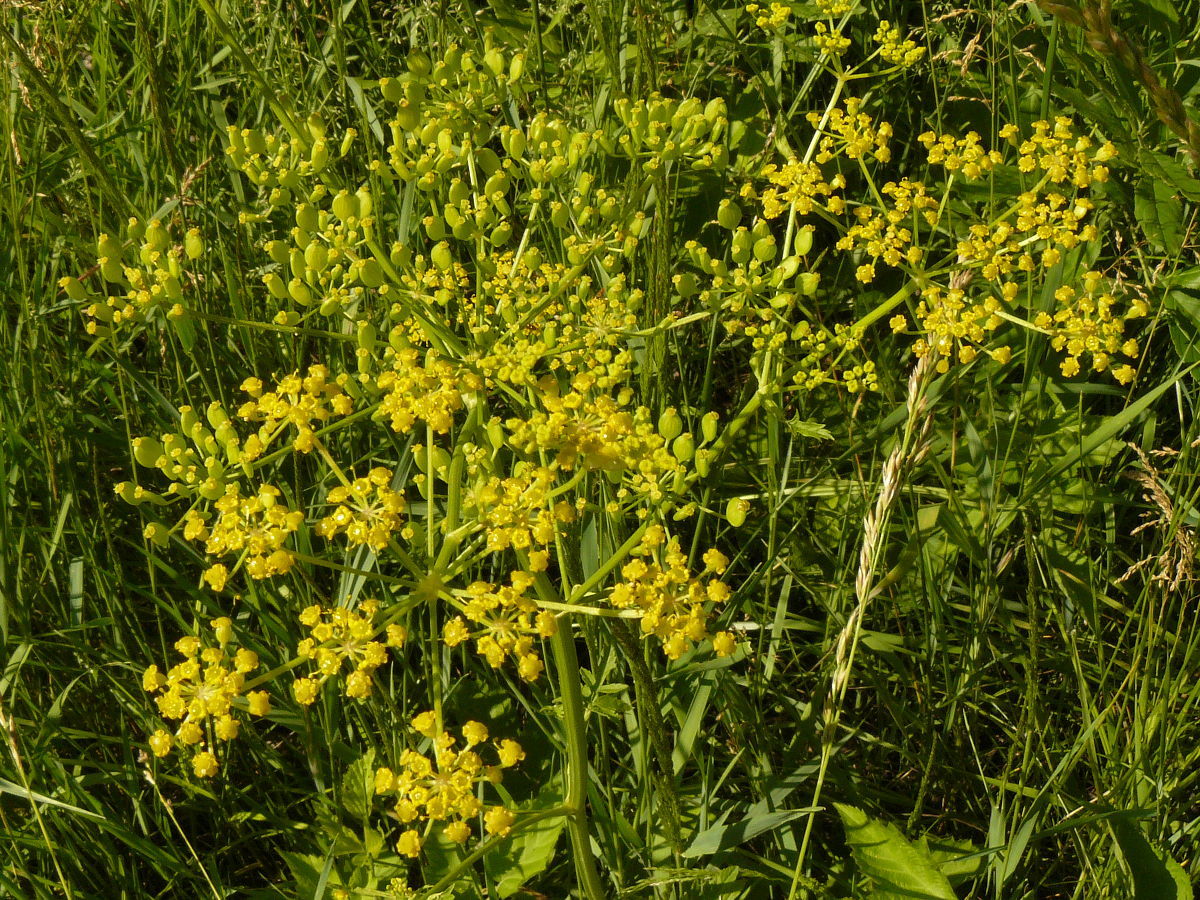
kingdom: Plantae
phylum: Tracheophyta
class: Magnoliopsida
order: Apiales
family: Apiaceae
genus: Pastinaca
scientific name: Pastinaca sativa
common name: Wild parsnip
